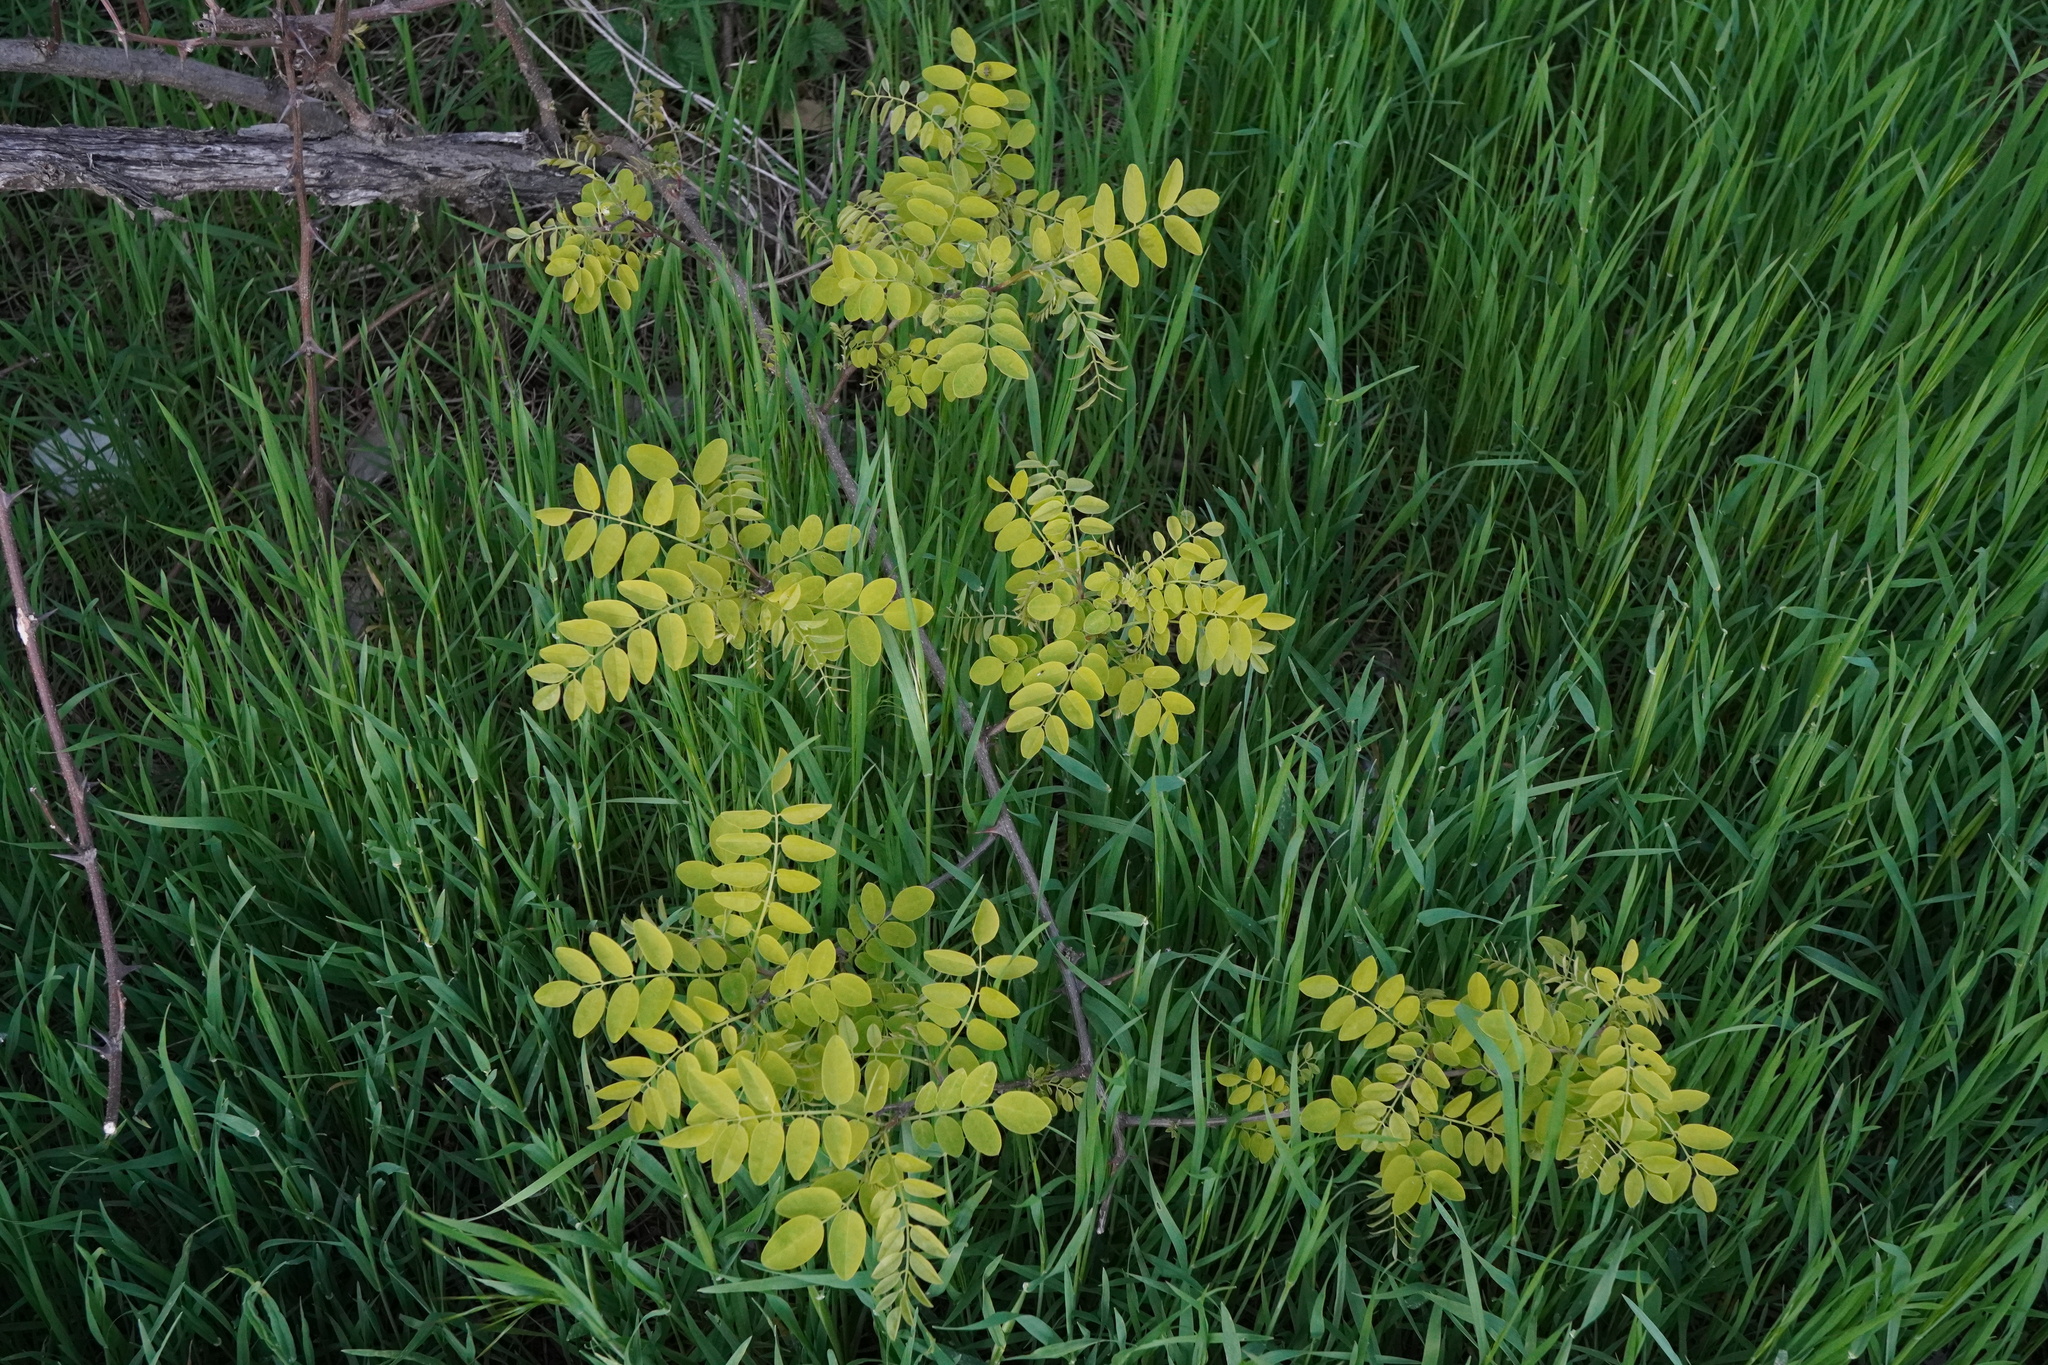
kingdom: Plantae
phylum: Tracheophyta
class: Magnoliopsida
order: Fabales
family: Fabaceae
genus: Robinia
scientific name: Robinia pseudoacacia
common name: Black locust
